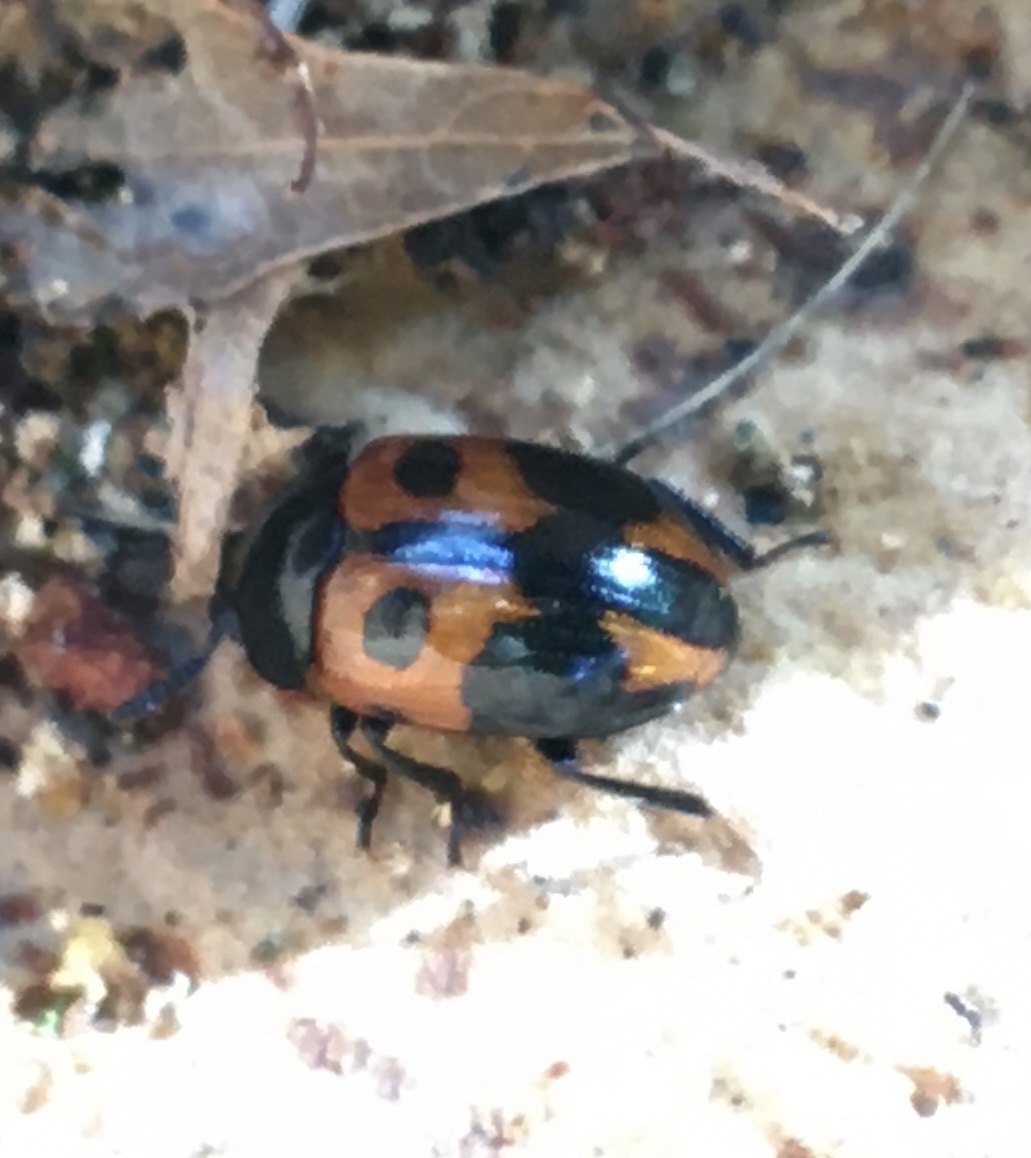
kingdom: Animalia
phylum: Arthropoda
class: Insecta
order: Coleoptera
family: Tenebrionidae
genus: Diaperis
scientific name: Diaperis maculata
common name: Darkling beetle
